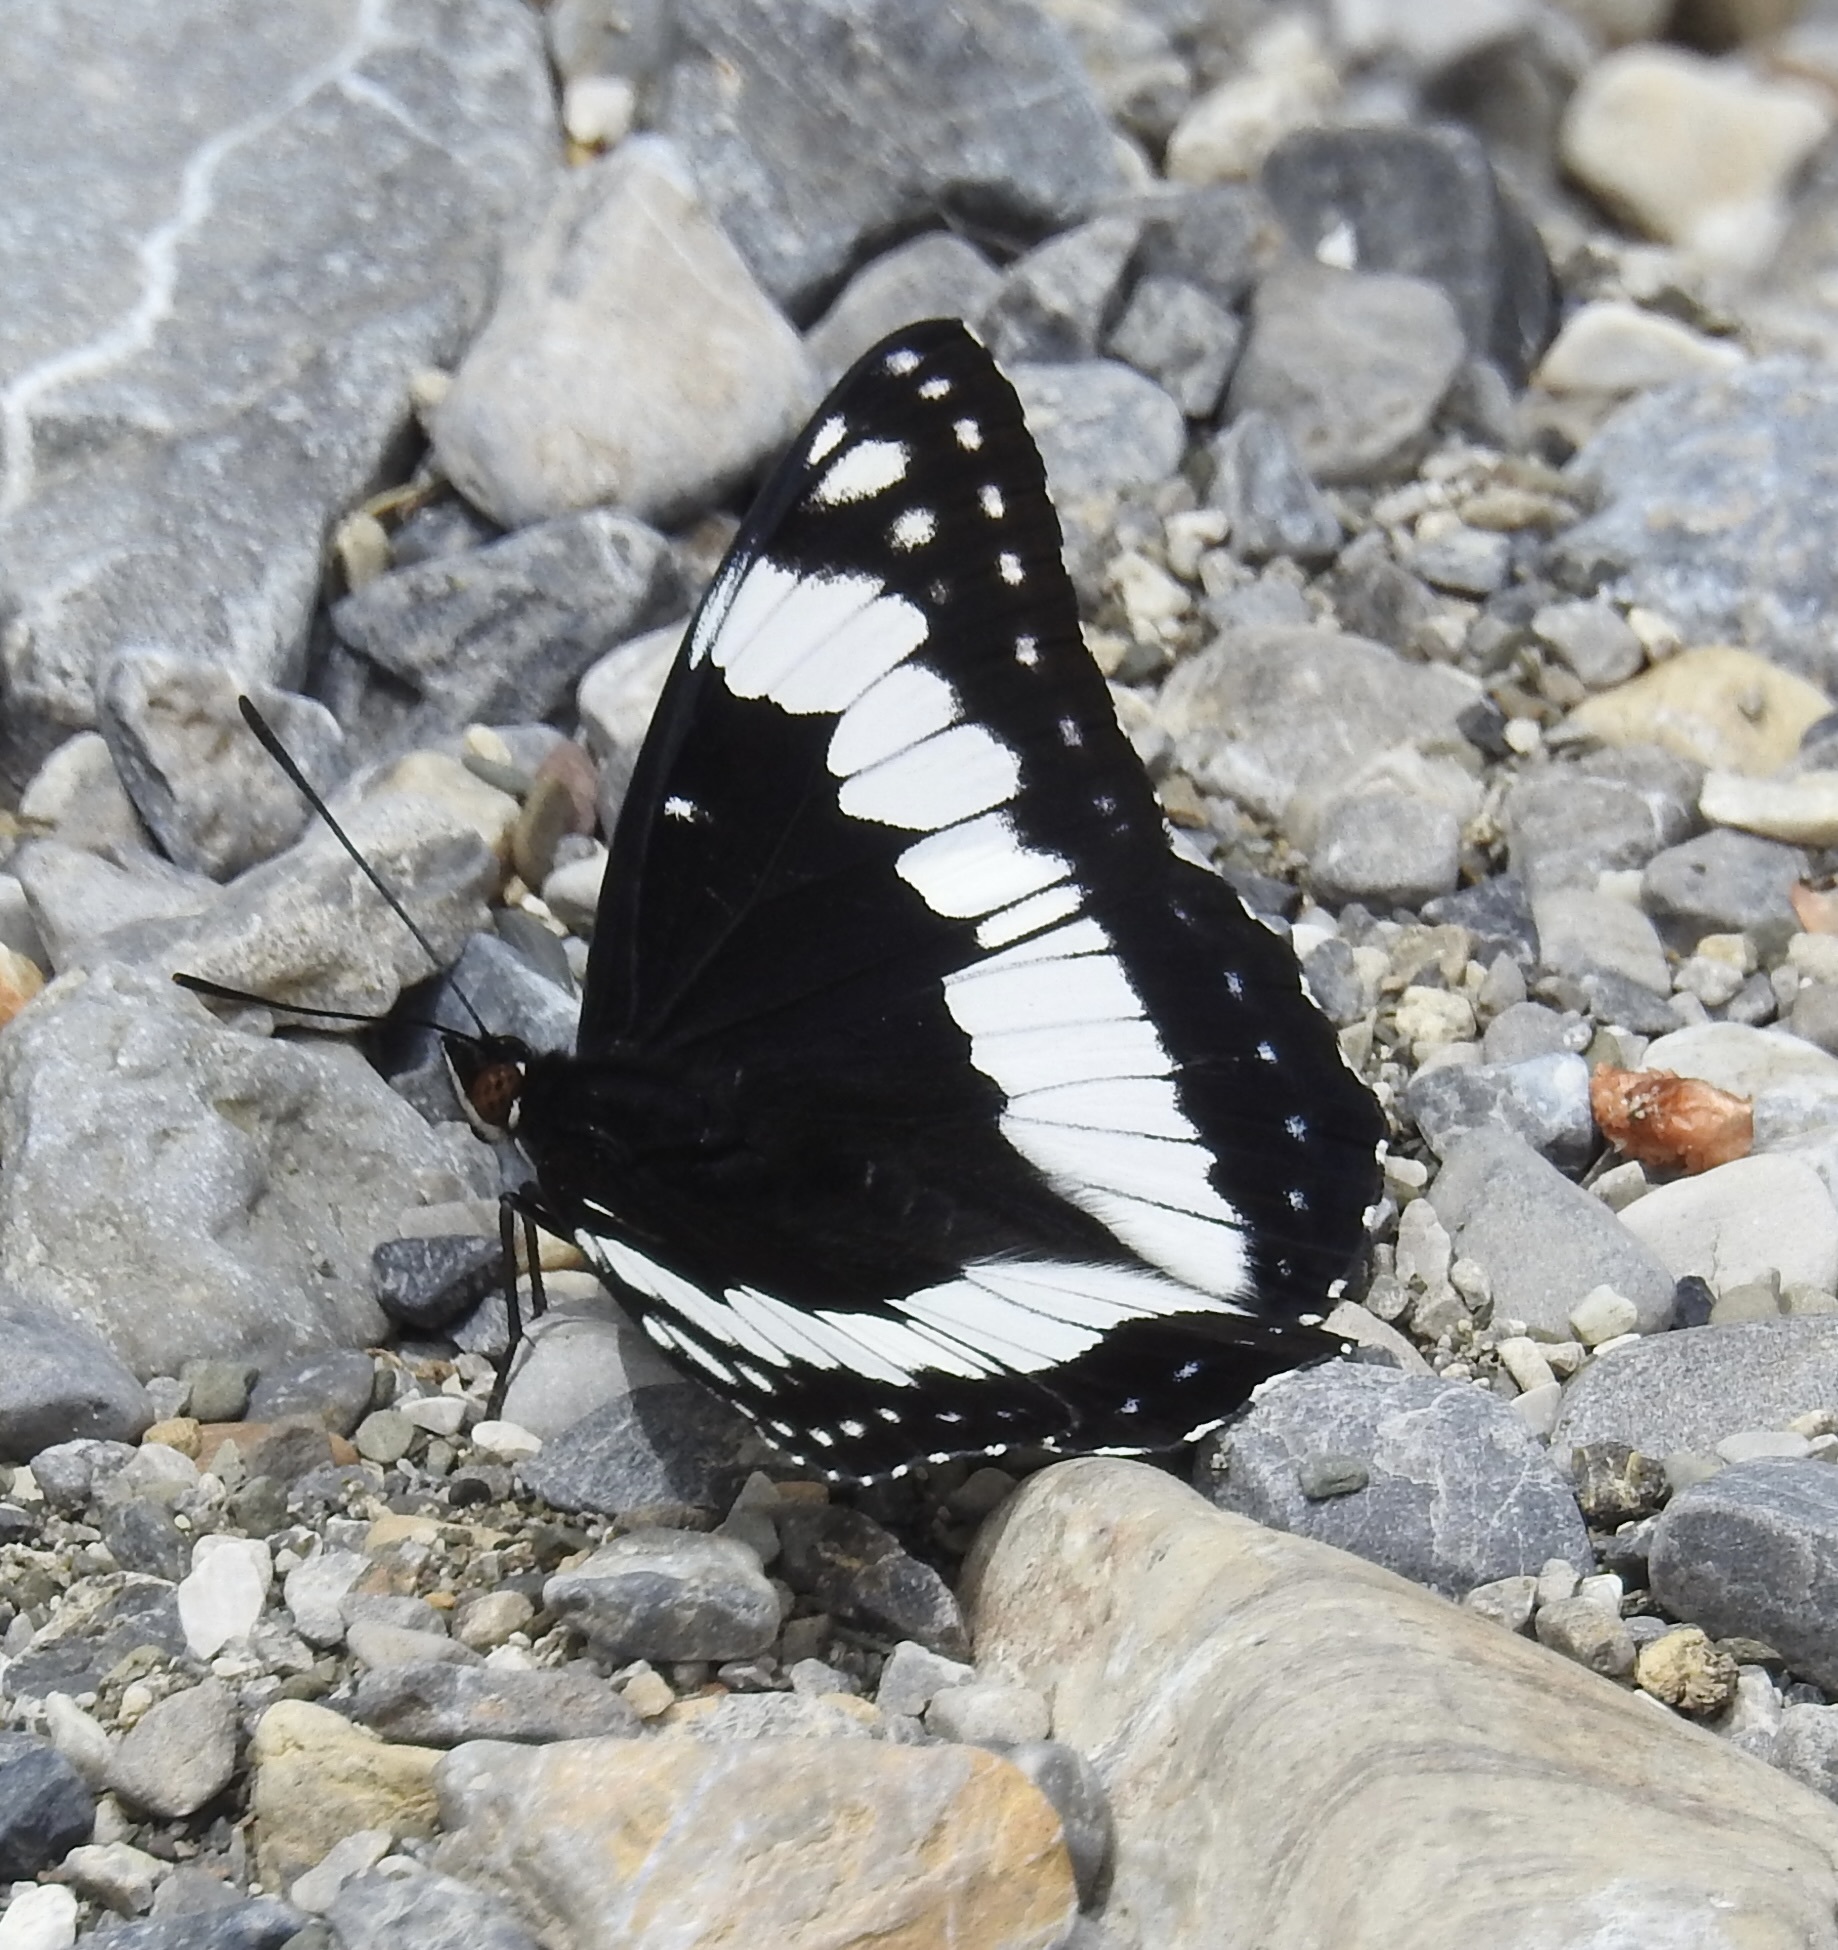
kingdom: Animalia
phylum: Arthropoda
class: Insecta
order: Lepidoptera
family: Nymphalidae
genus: Limenitis
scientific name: Limenitis weidemeyerii
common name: Weidemeyer's admiral
